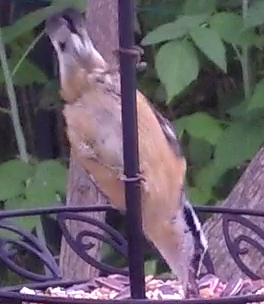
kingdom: Animalia
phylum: Chordata
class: Aves
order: Passeriformes
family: Sittidae
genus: Sitta
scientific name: Sitta canadensis
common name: Red-breasted nuthatch
